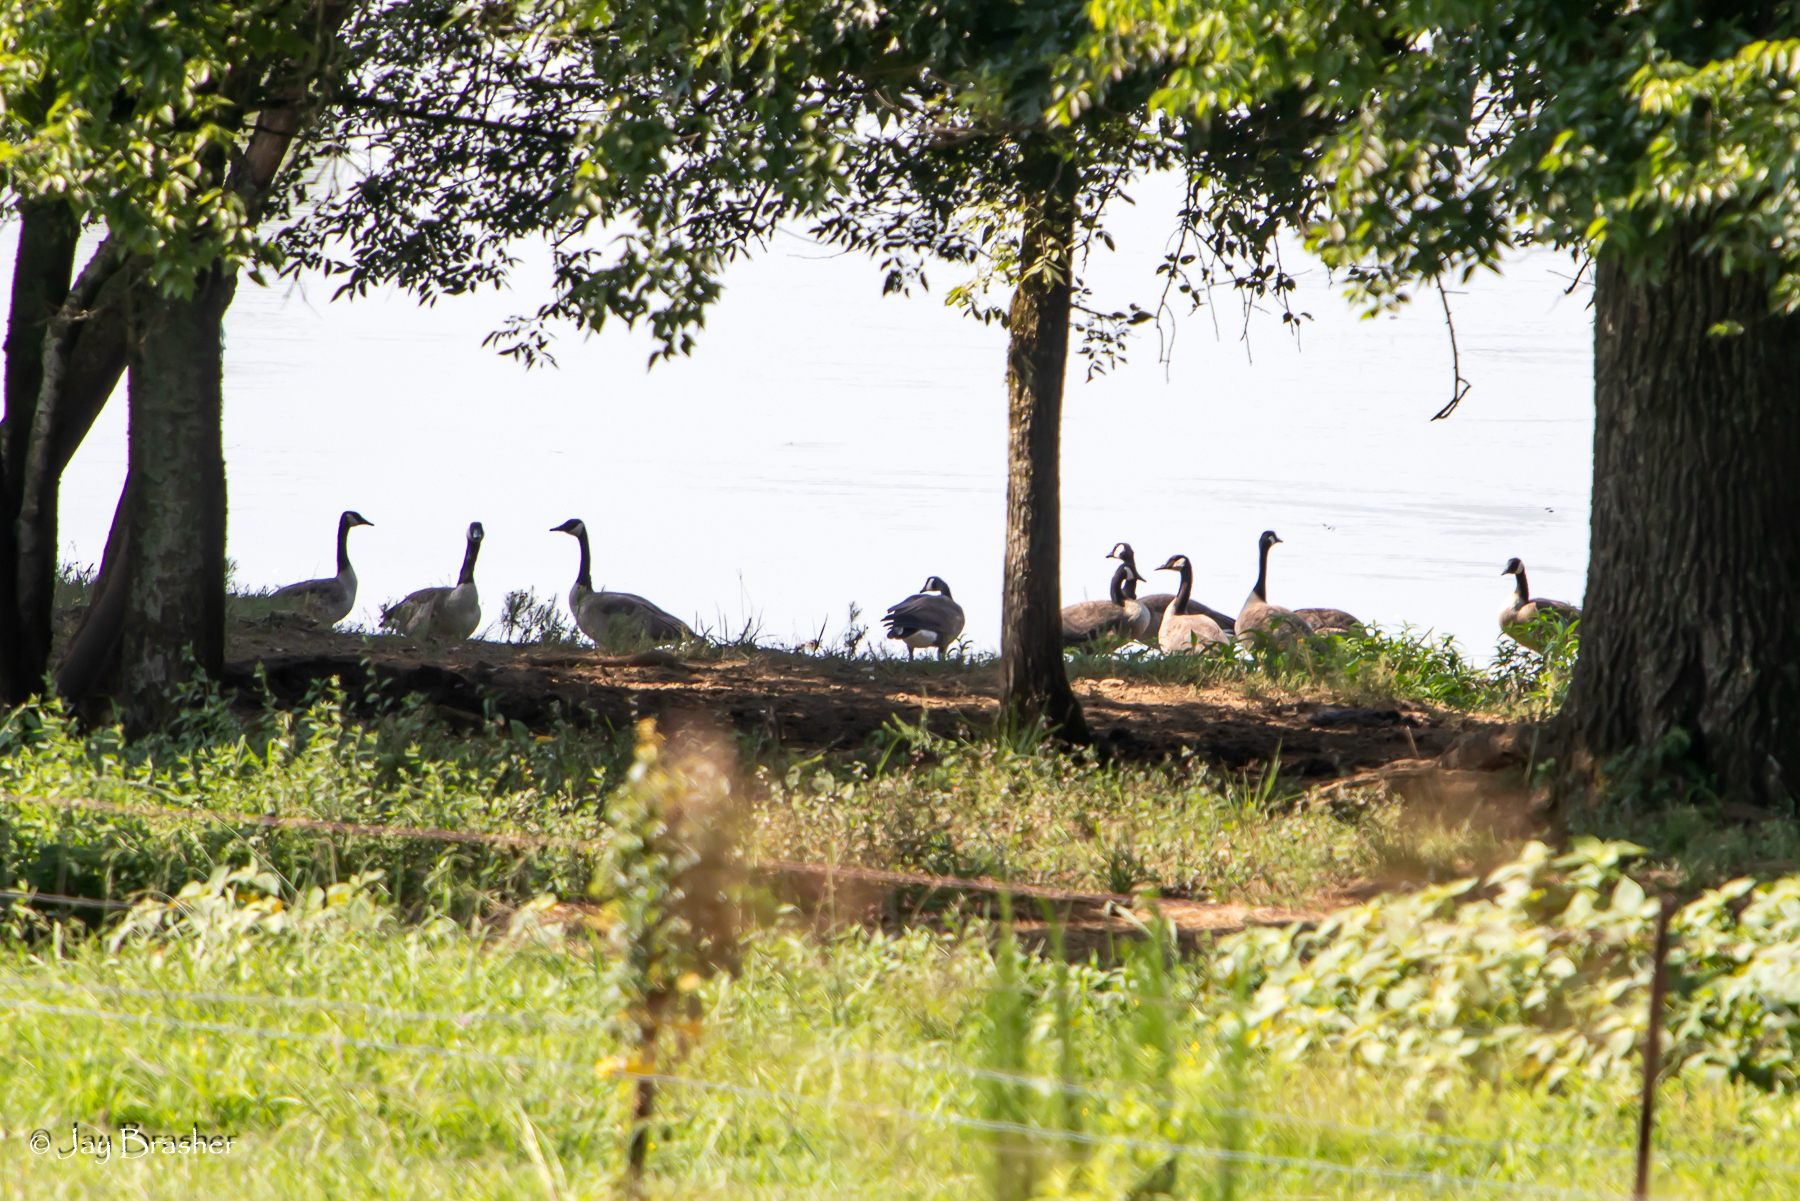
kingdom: Animalia
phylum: Chordata
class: Aves
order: Anseriformes
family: Anatidae
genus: Branta
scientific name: Branta canadensis
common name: Canada goose
